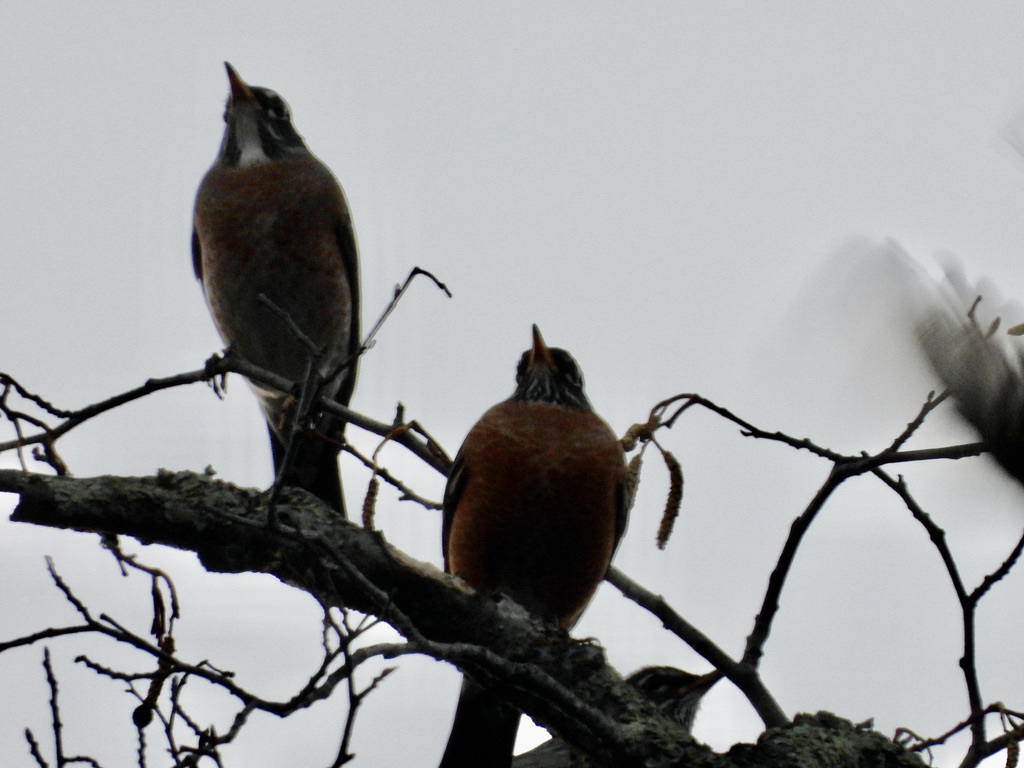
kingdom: Animalia
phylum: Chordata
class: Aves
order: Passeriformes
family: Turdidae
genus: Turdus
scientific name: Turdus migratorius
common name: American robin
